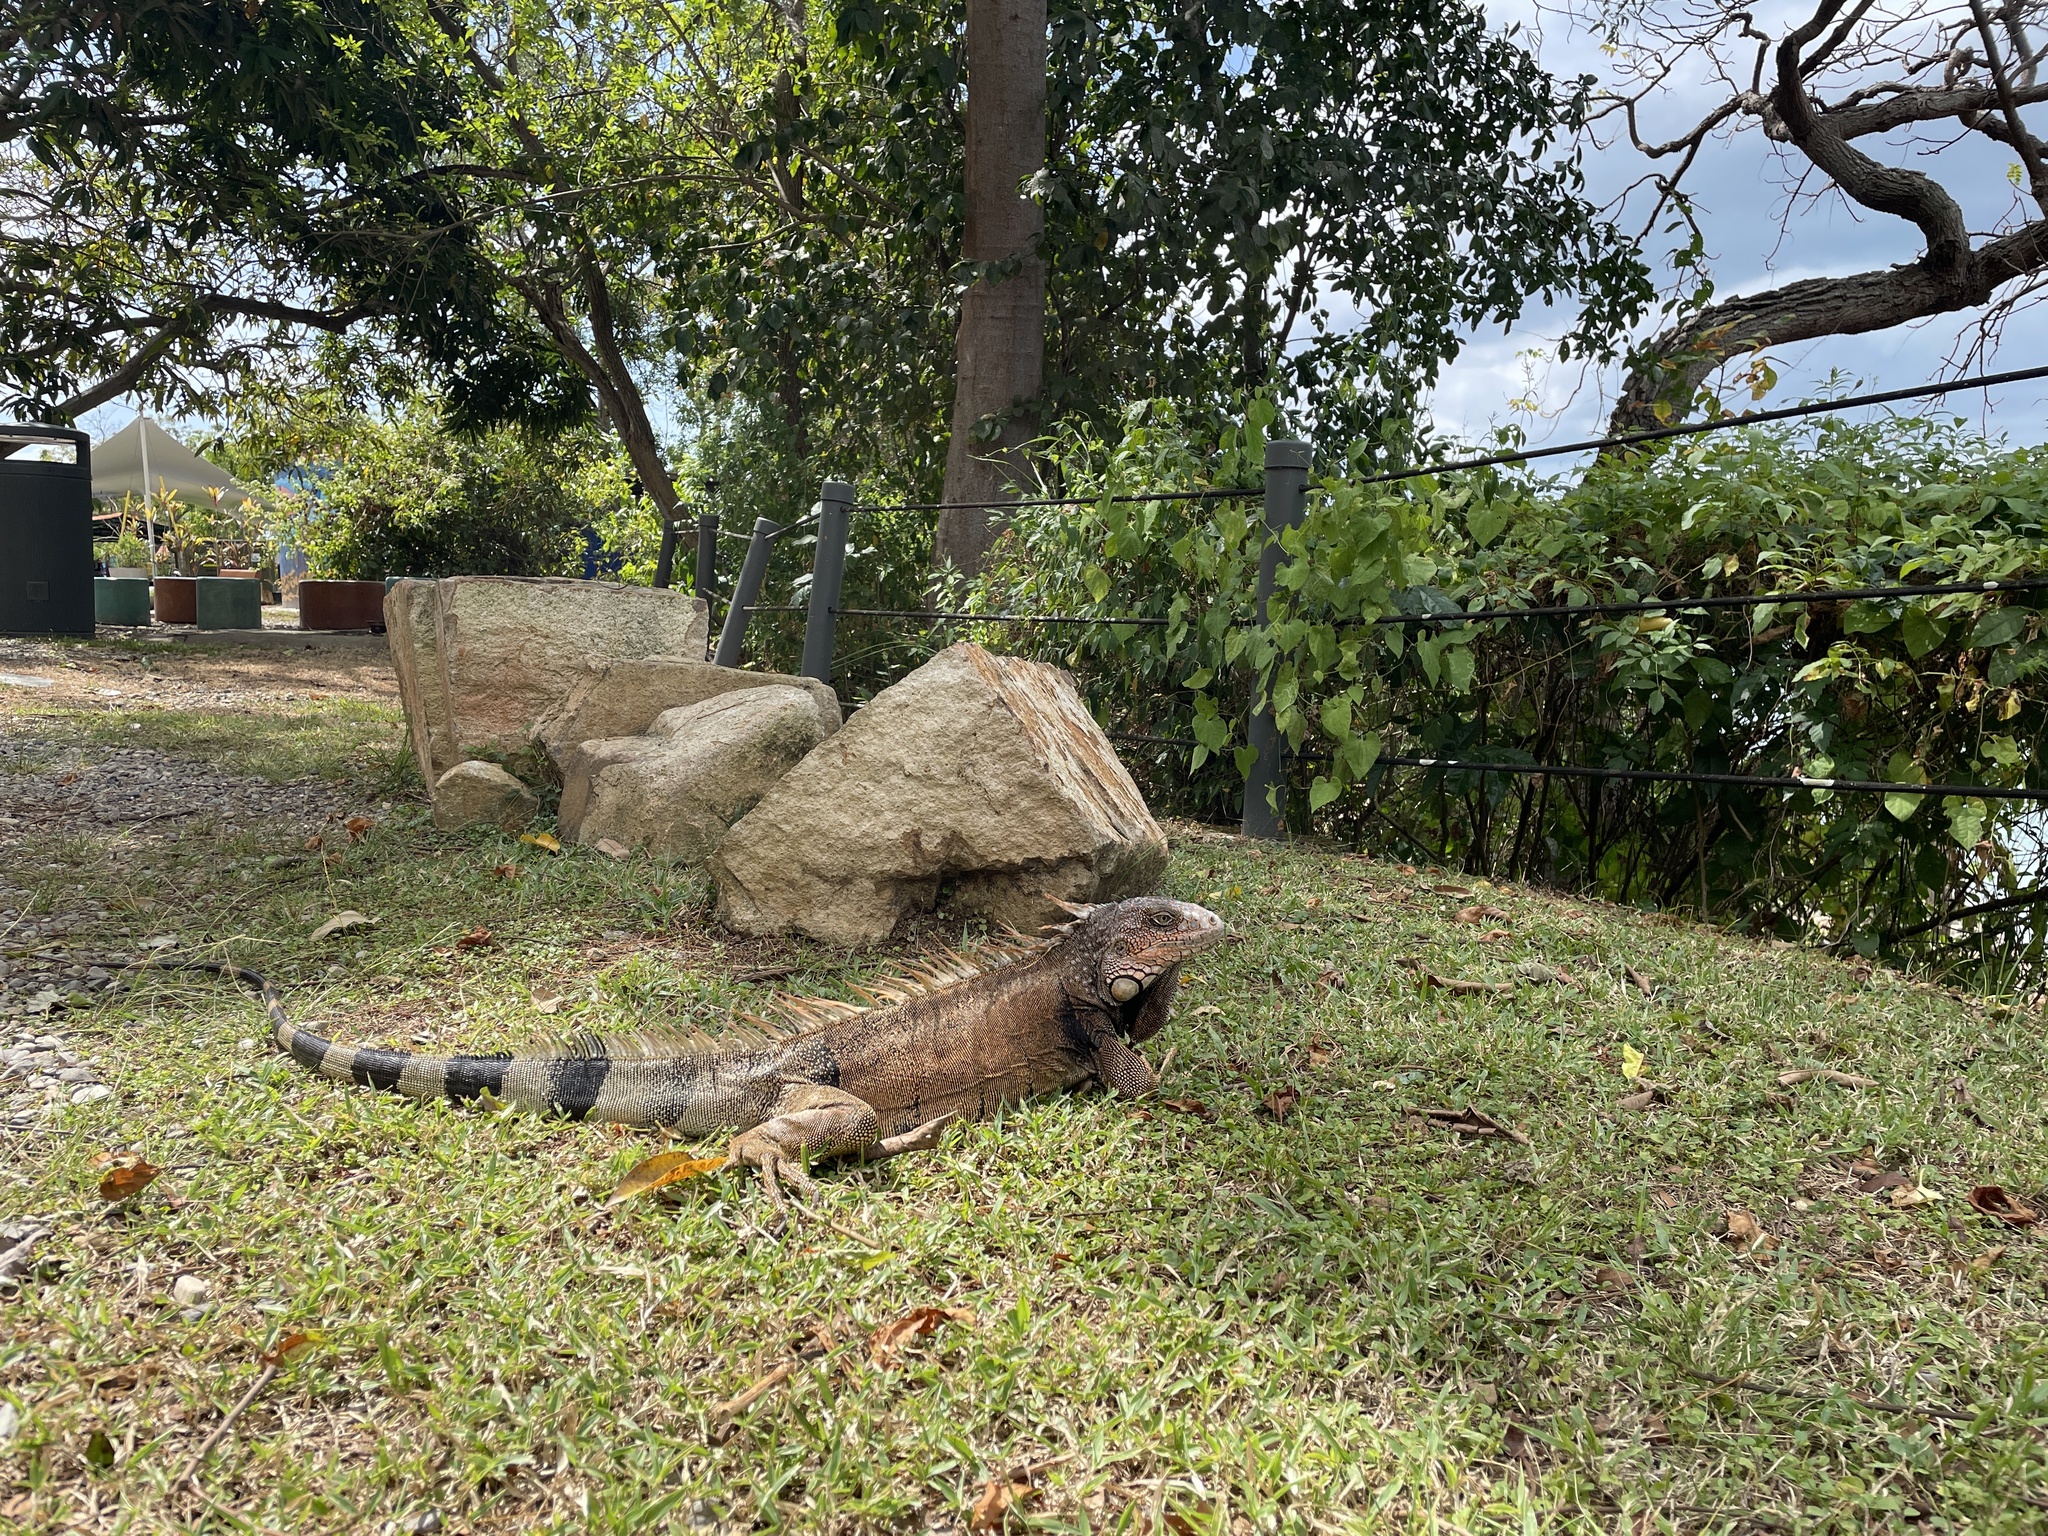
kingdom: Animalia
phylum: Chordata
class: Squamata
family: Iguanidae
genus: Iguana
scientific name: Iguana iguana
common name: Green iguana
